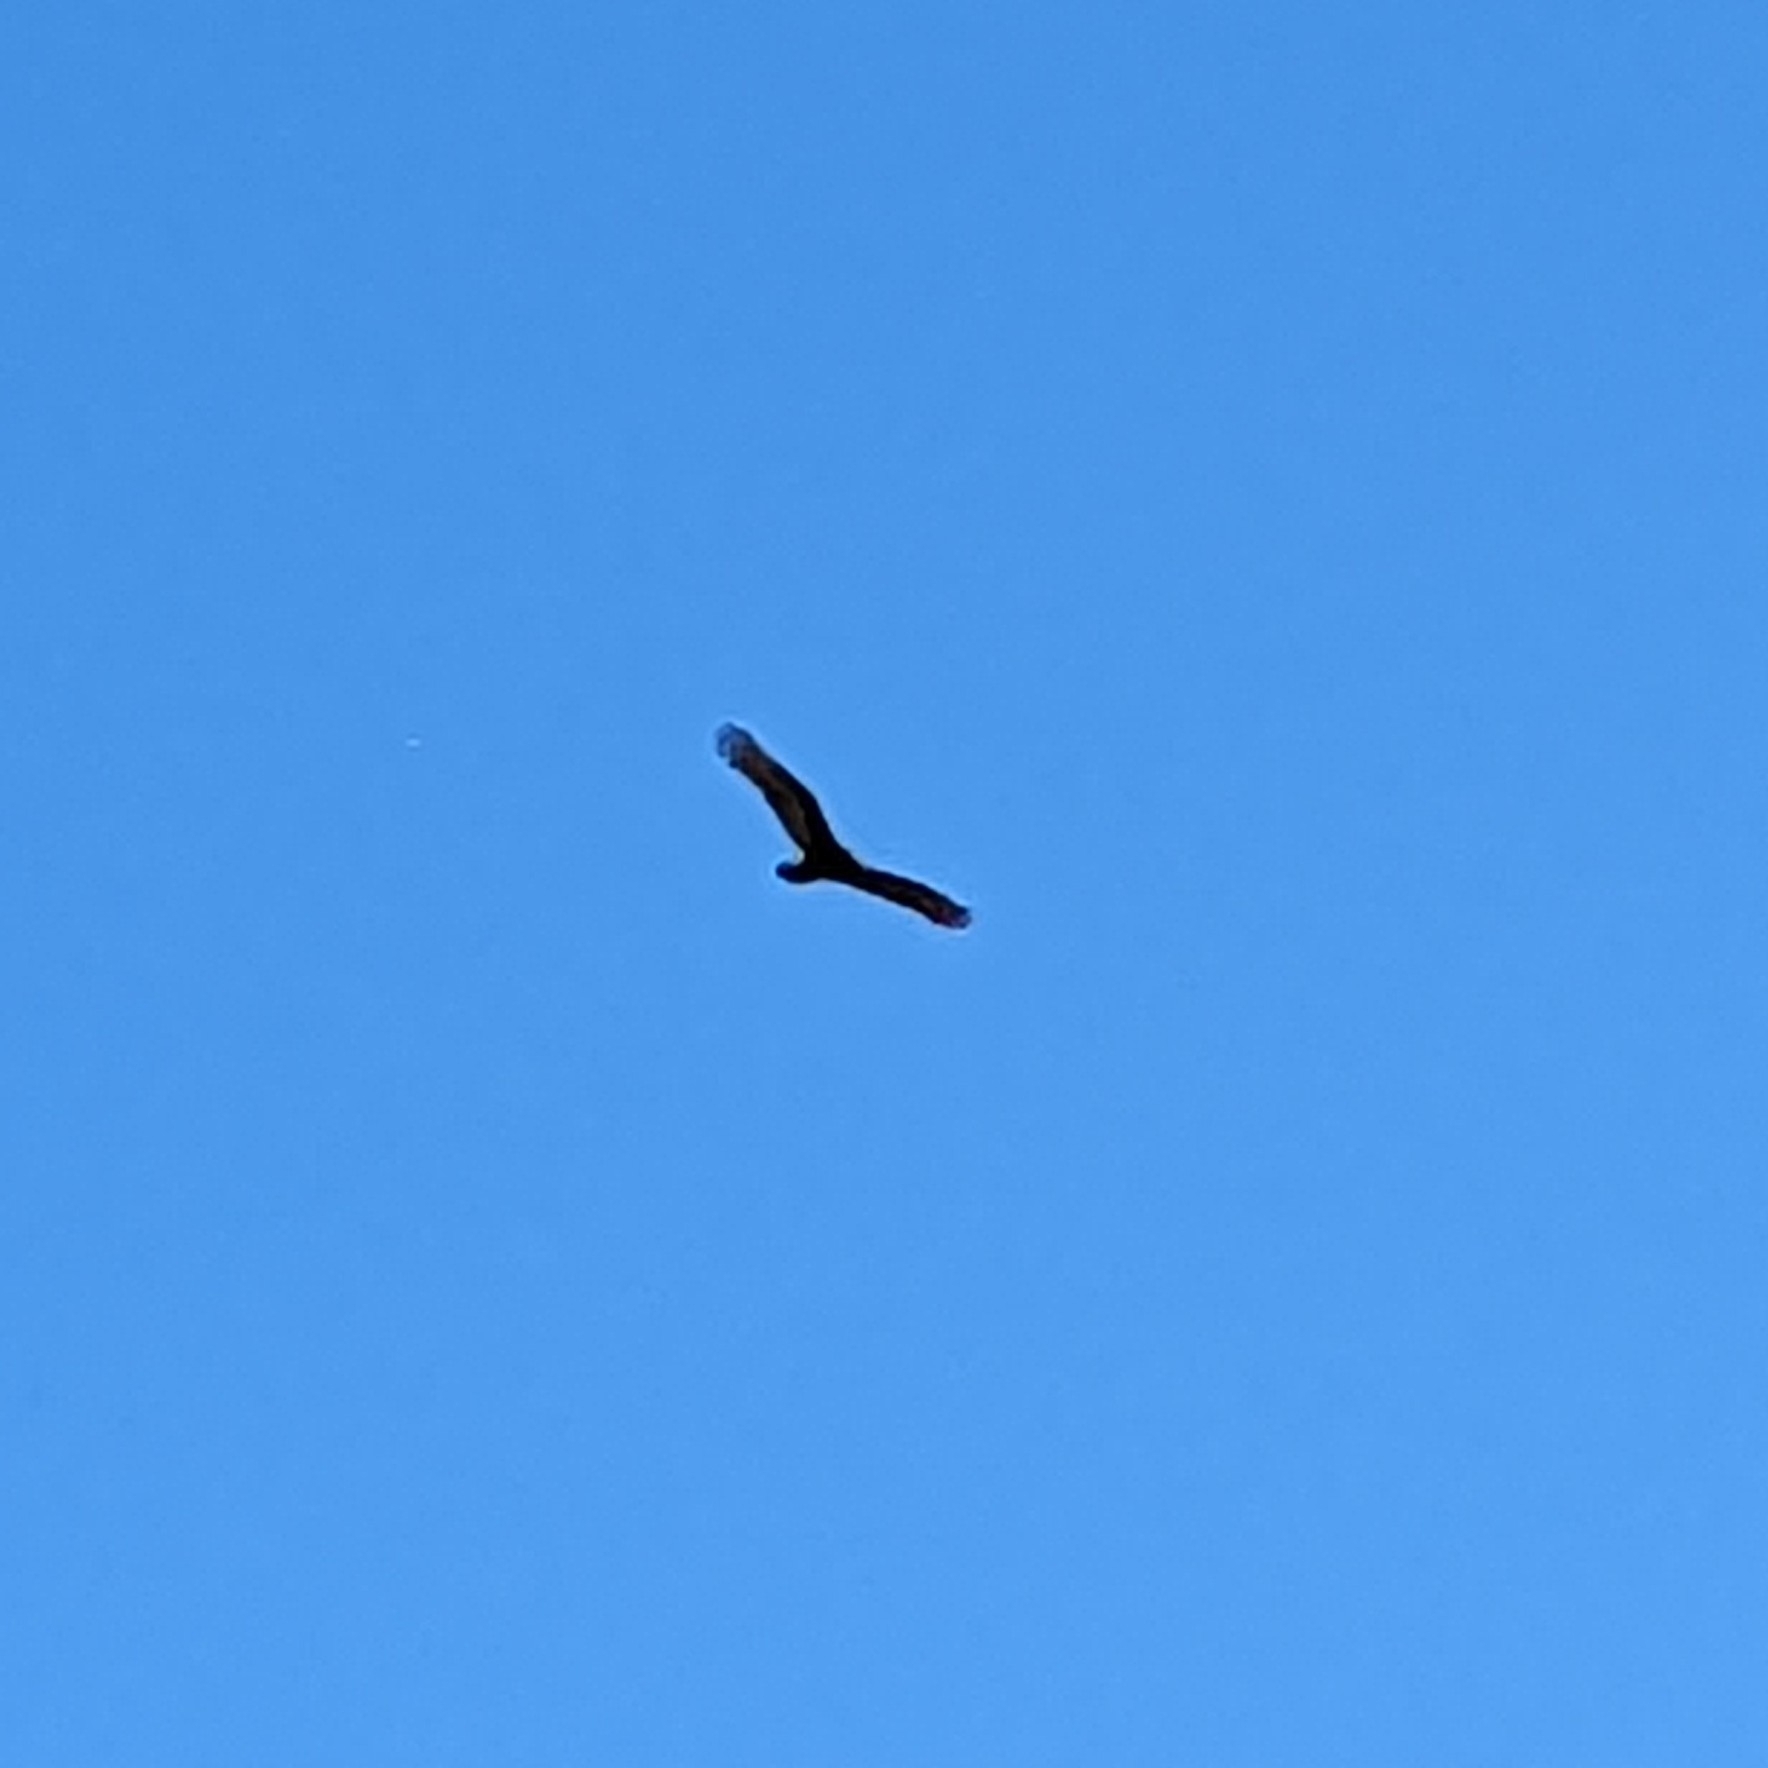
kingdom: Animalia
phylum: Chordata
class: Aves
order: Accipitriformes
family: Cathartidae
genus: Cathartes
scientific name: Cathartes aura
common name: Turkey vulture
